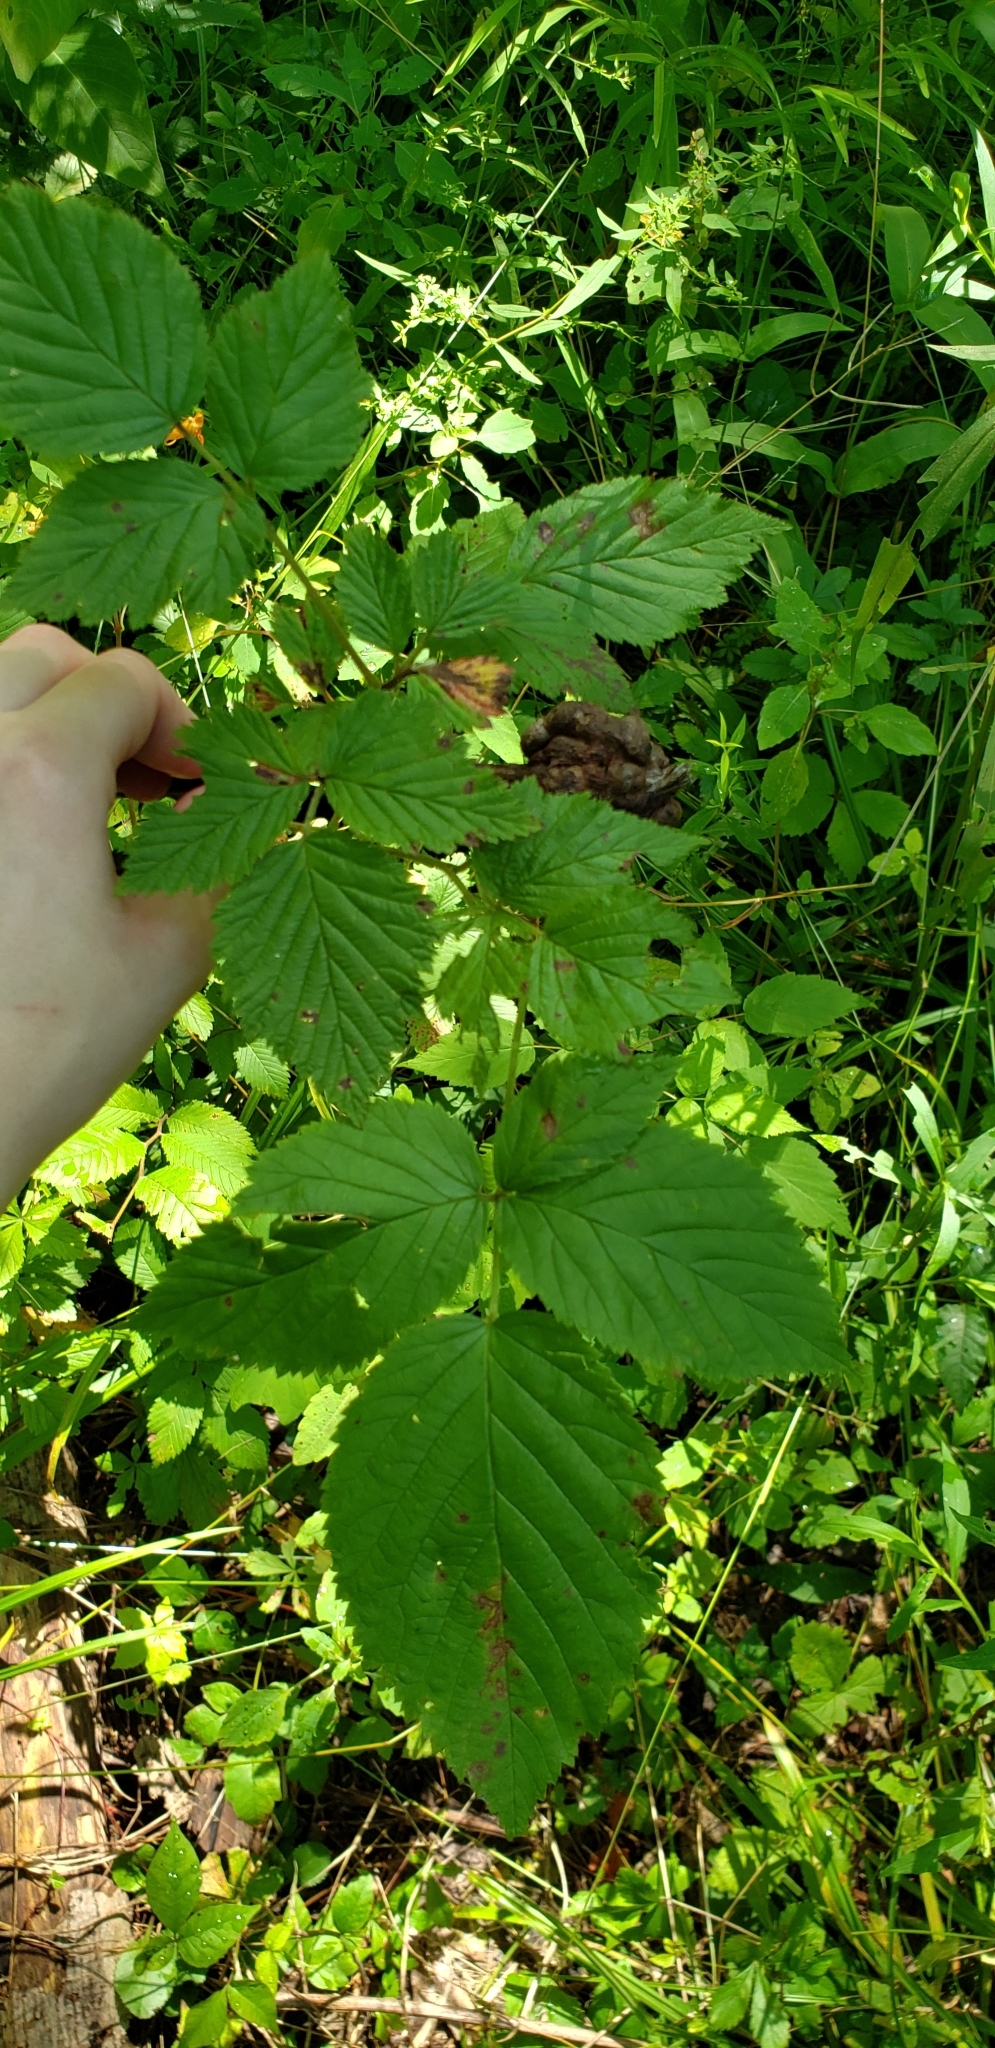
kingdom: Animalia
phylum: Arthropoda
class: Insecta
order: Hymenoptera
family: Cynipidae
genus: Diastrophus
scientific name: Diastrophus
